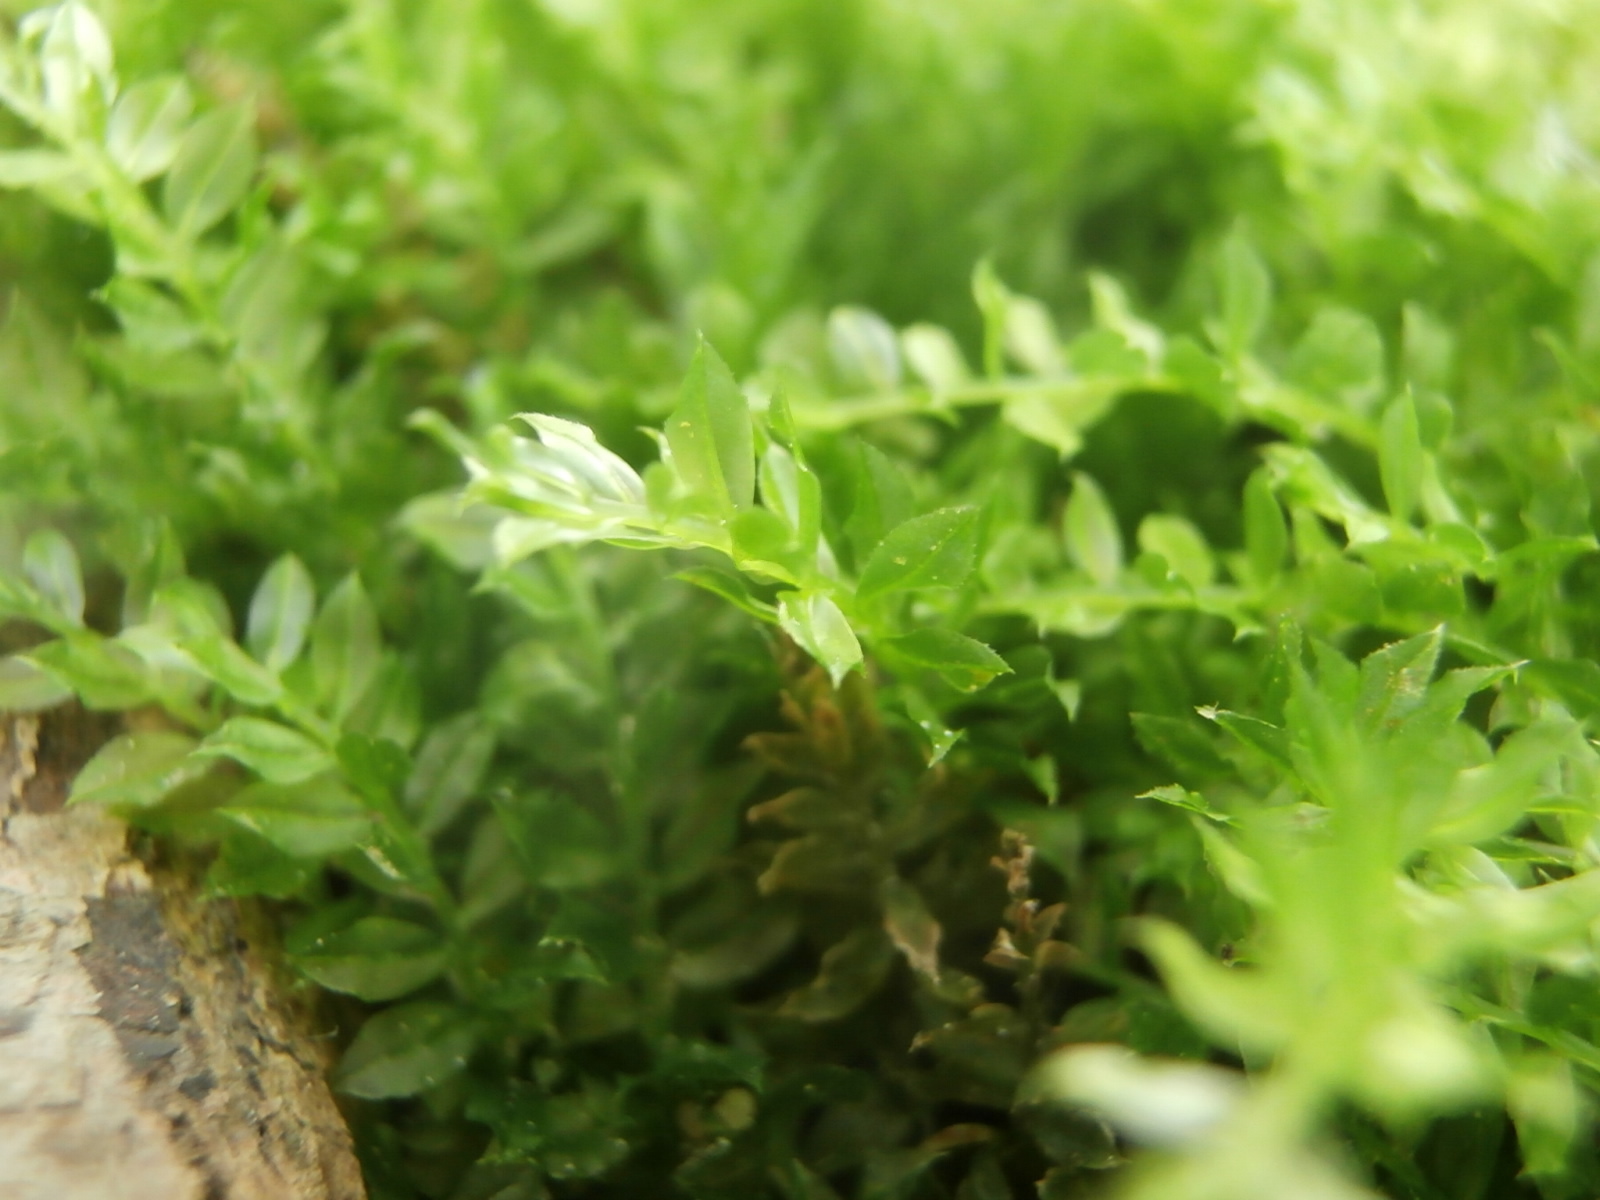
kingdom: Plantae
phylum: Bryophyta
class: Bryopsida
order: Bryales
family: Mniaceae
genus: Plagiomnium
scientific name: Plagiomnium cuspidatum
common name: Woodsy leafy moss
